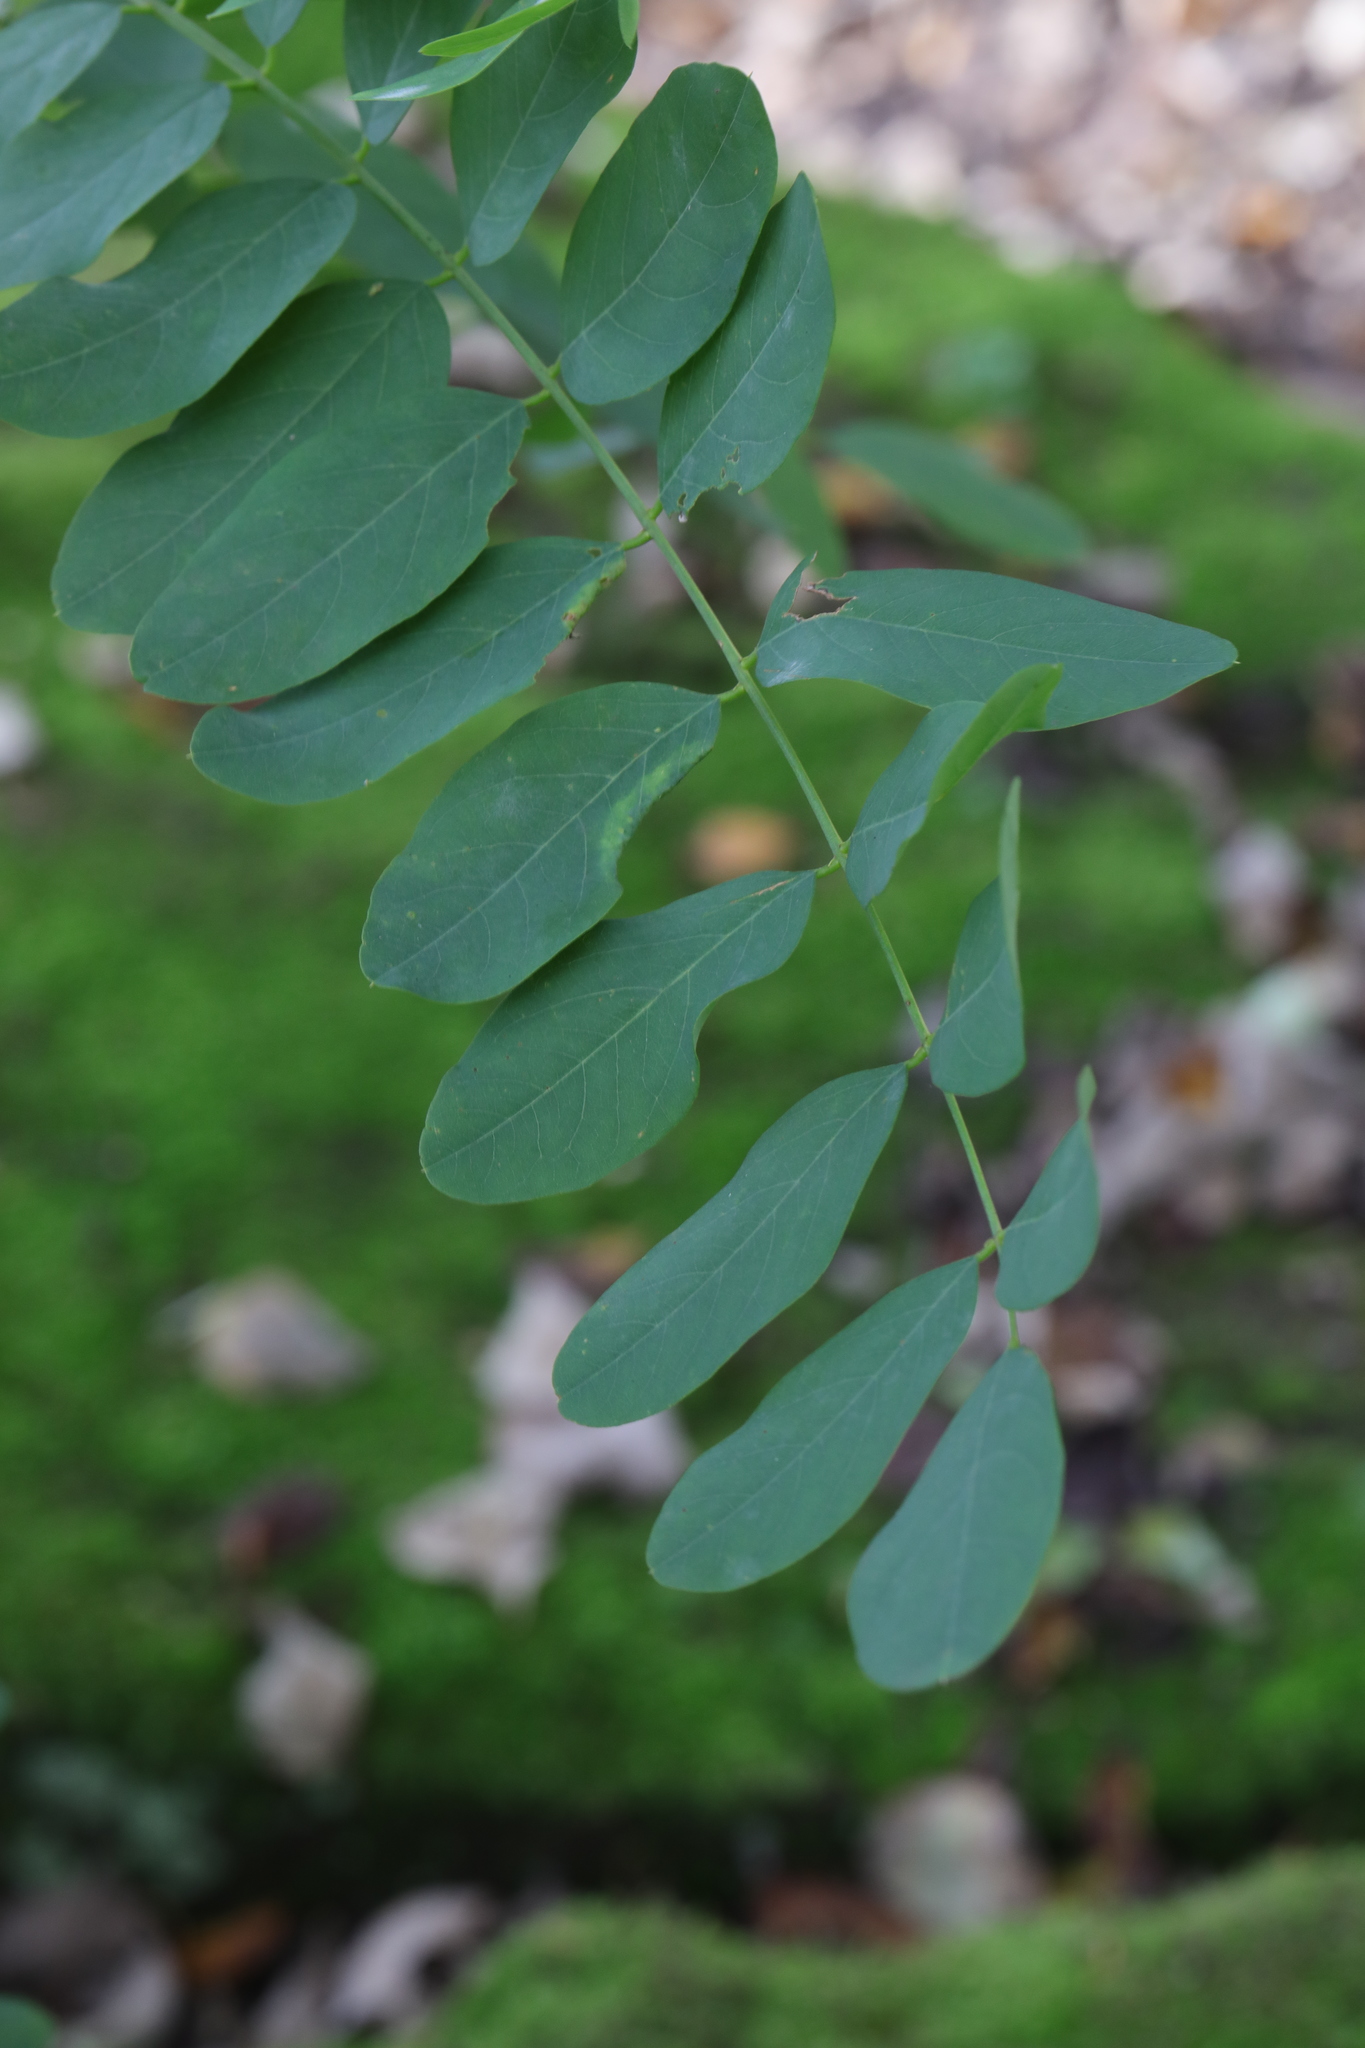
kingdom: Plantae
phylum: Tracheophyta
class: Magnoliopsida
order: Fabales
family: Fabaceae
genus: Robinia
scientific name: Robinia pseudoacacia
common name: Black locust
